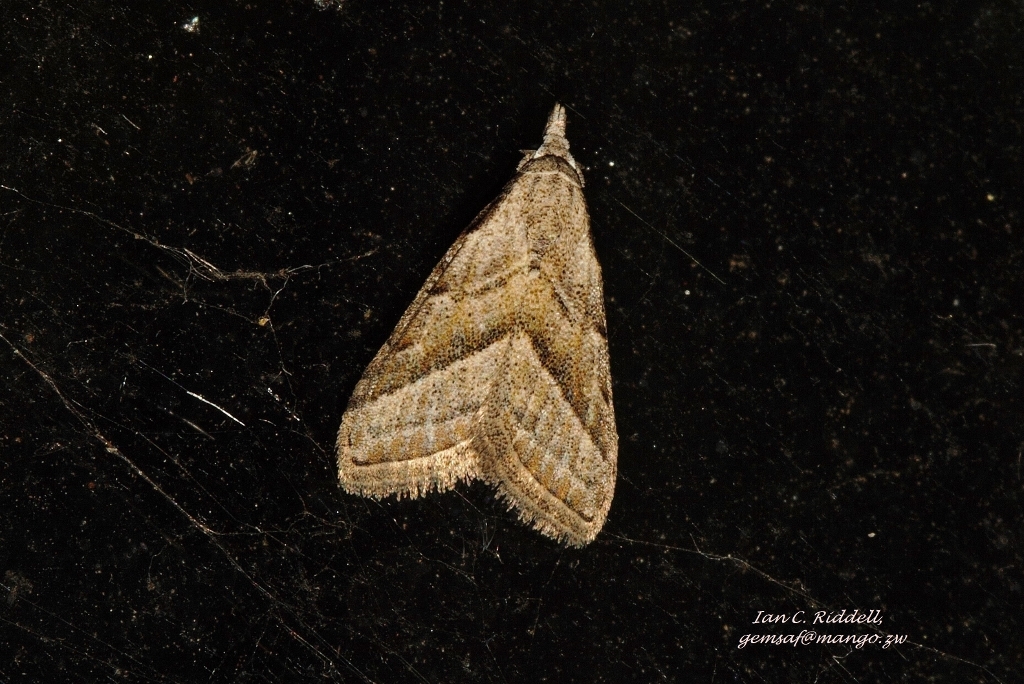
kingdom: Animalia
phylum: Arthropoda
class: Insecta
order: Lepidoptera
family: Nolidae
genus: Nola
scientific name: Nola imitata
